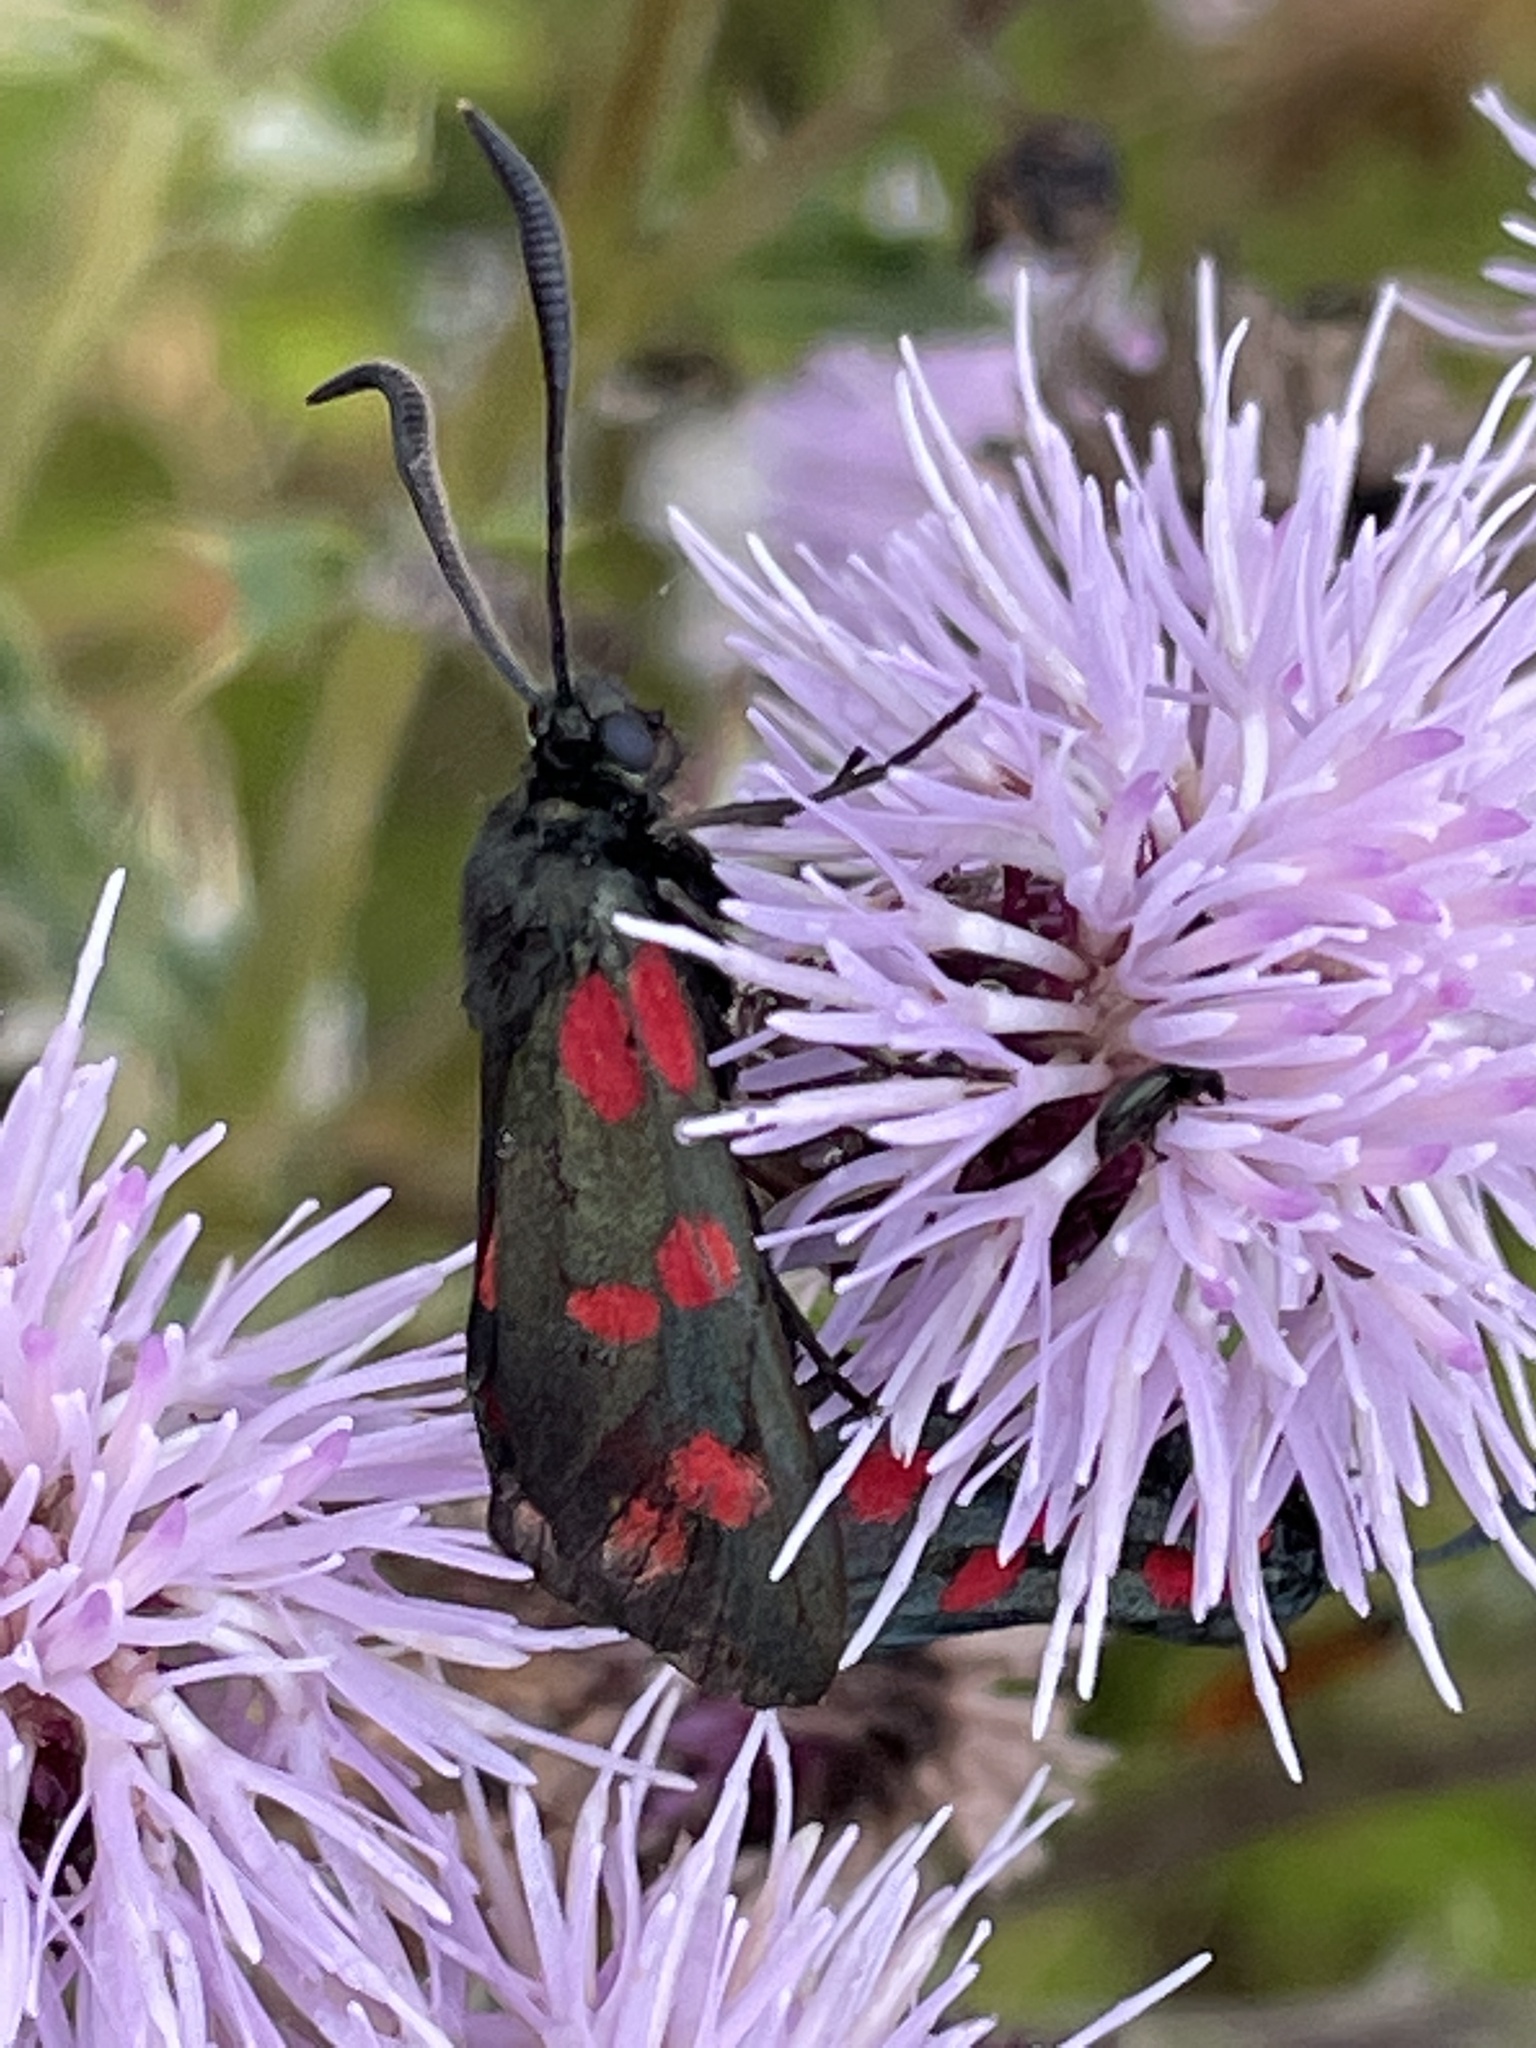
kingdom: Animalia
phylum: Arthropoda
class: Insecta
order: Lepidoptera
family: Zygaenidae
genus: Zygaena
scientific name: Zygaena filipendulae
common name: Six-spot burnet
